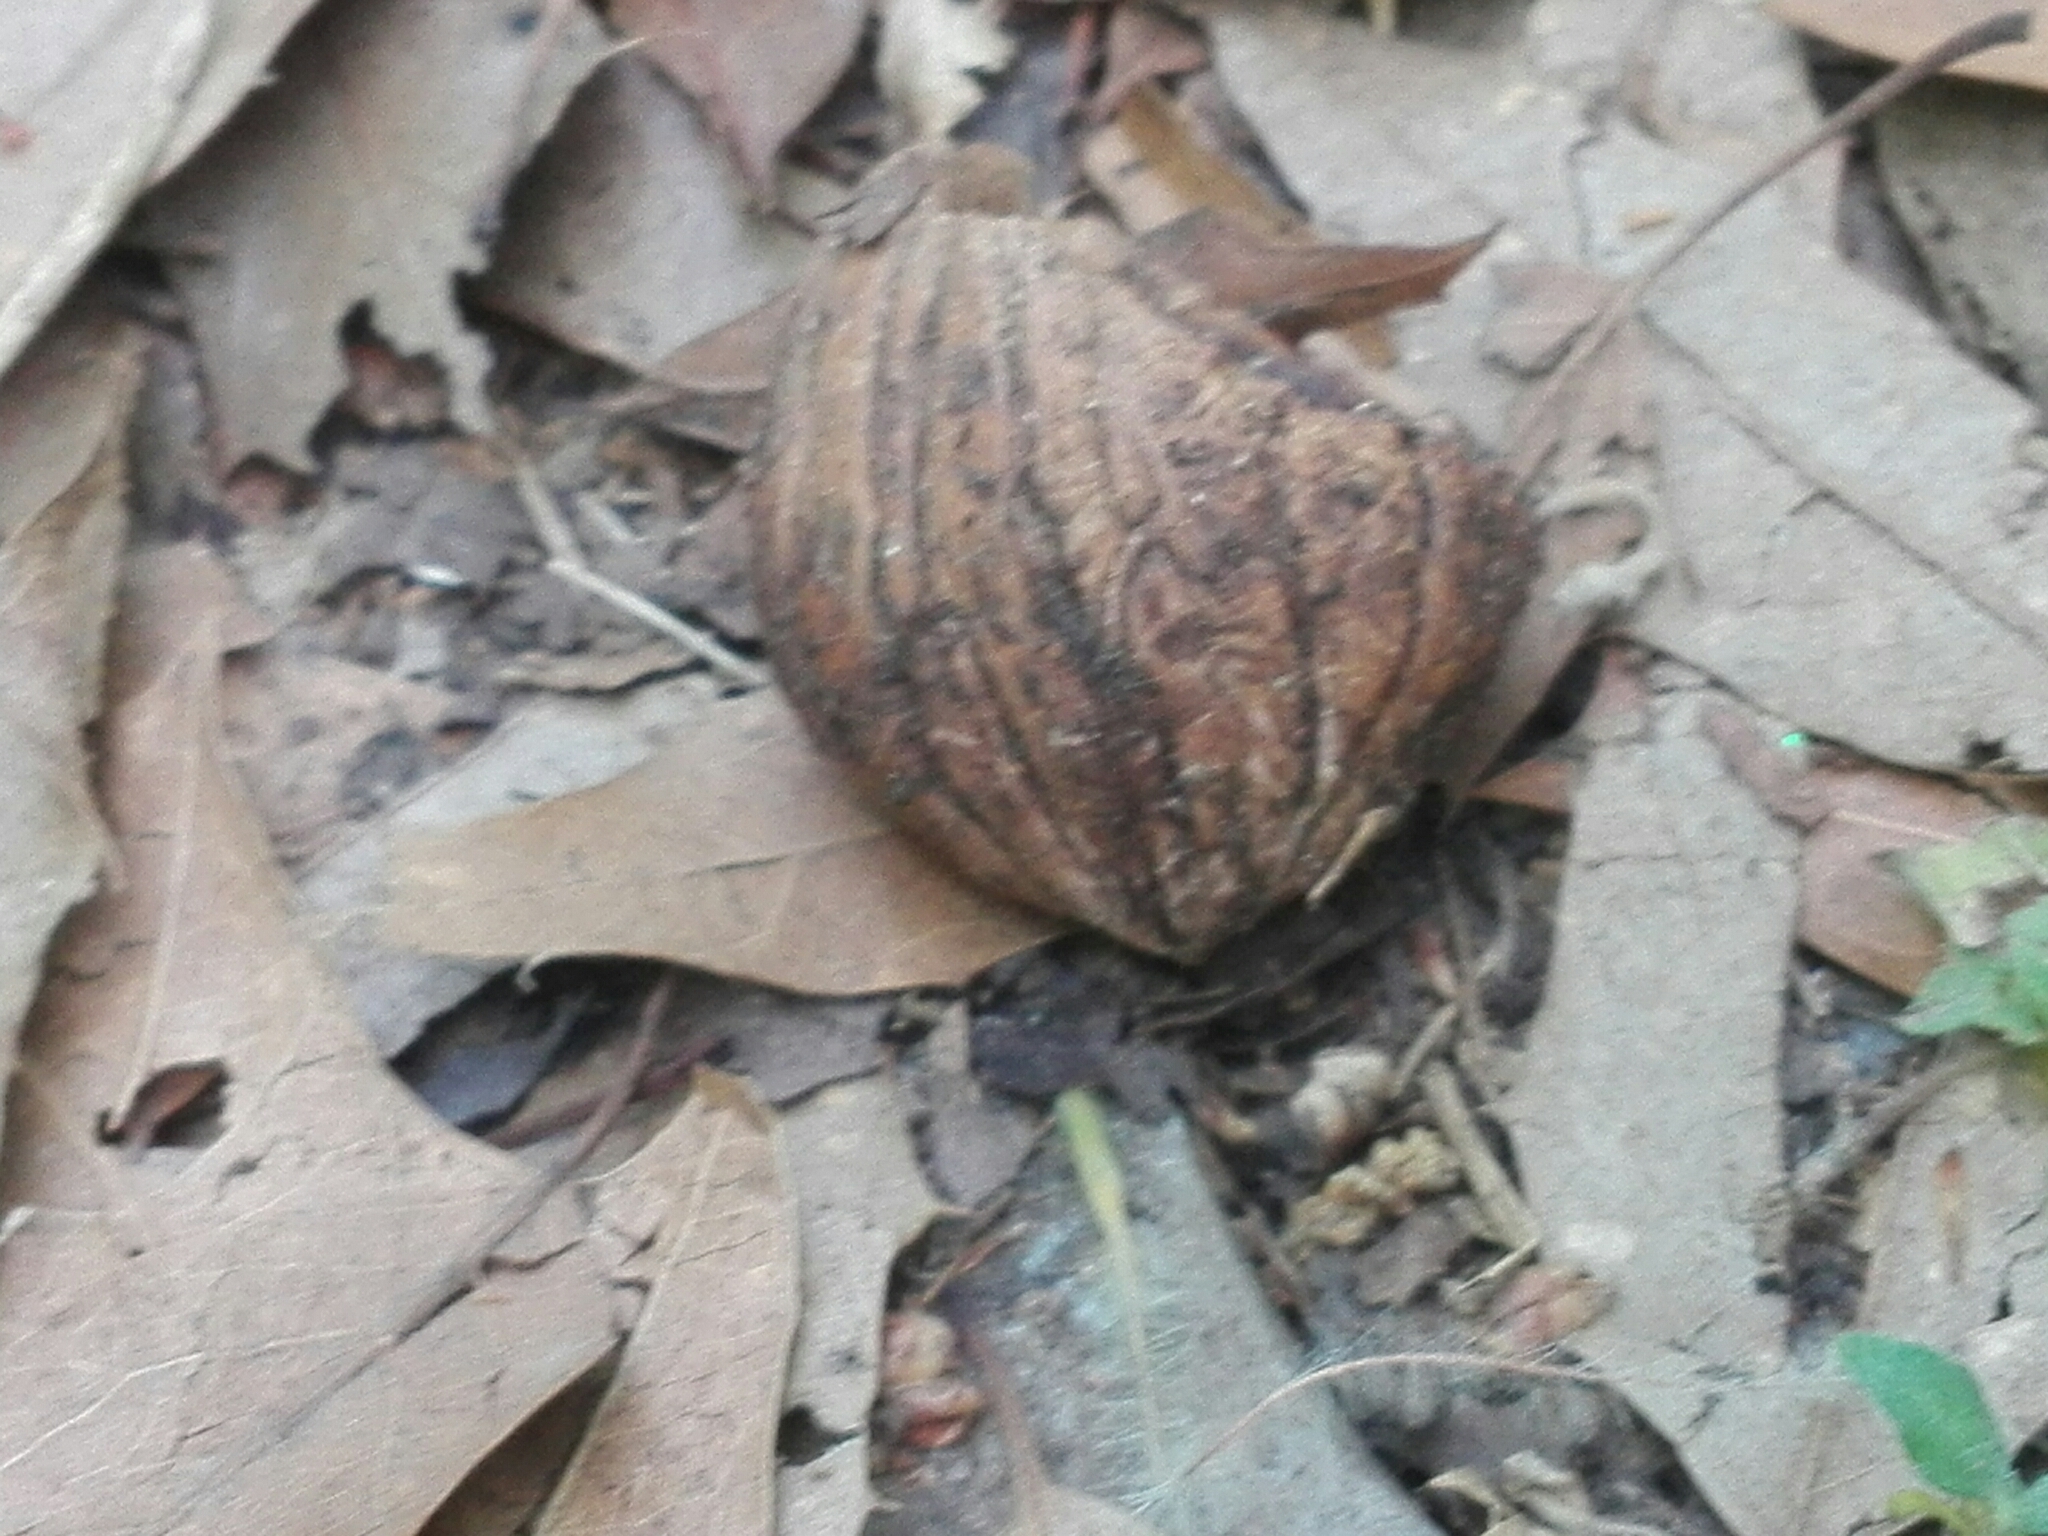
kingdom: Plantae
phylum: Tracheophyta
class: Magnoliopsida
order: Fagales
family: Juglandaceae
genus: Juglans
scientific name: Juglans mollis
